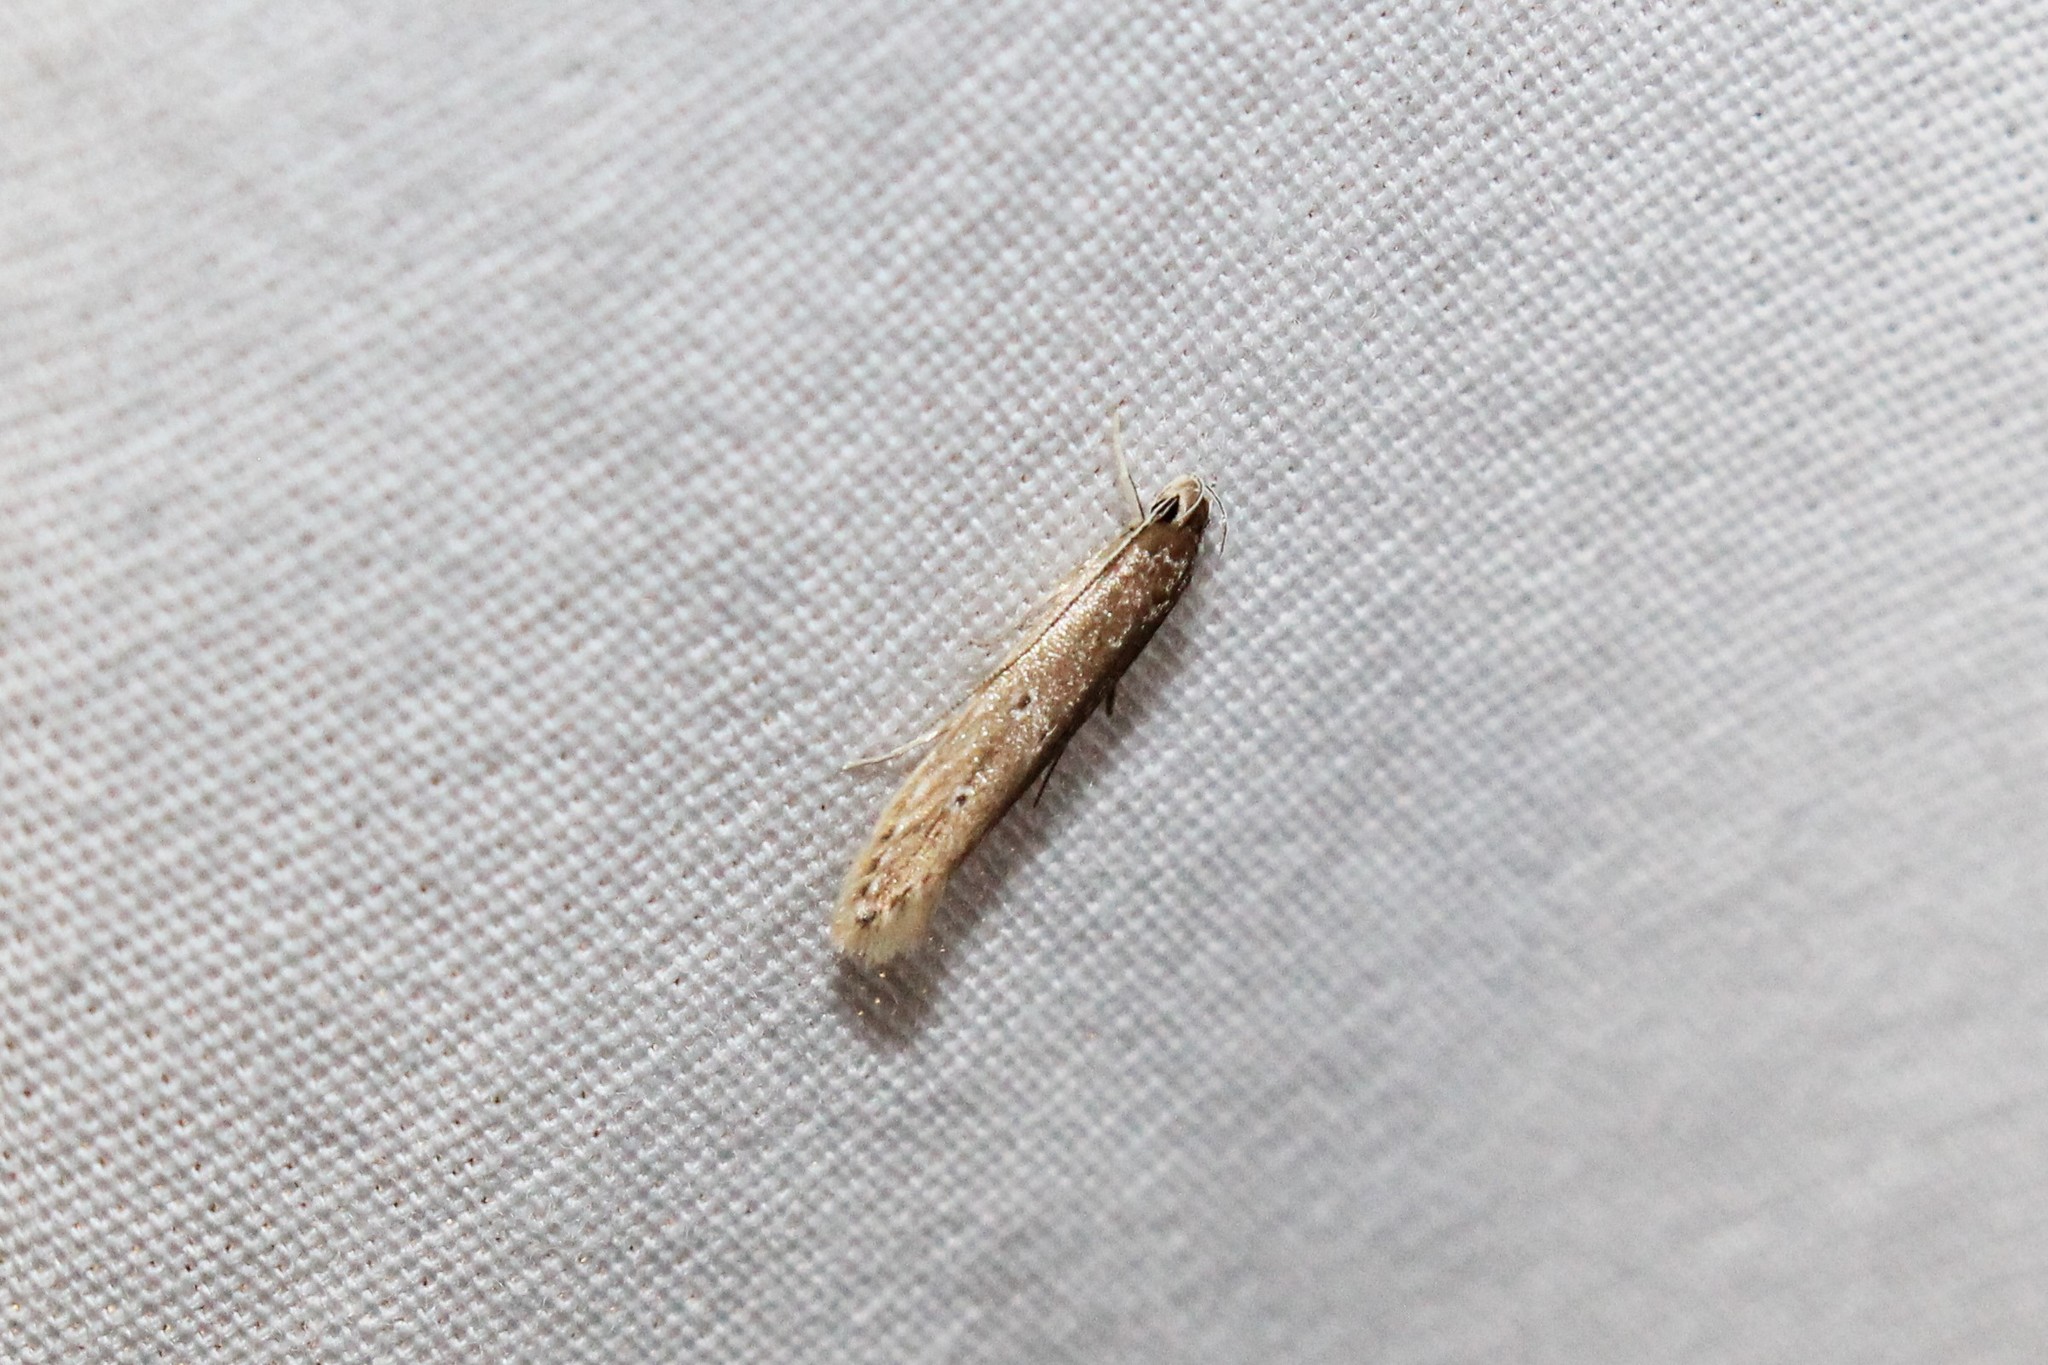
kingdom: Animalia
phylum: Arthropoda
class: Insecta
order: Lepidoptera
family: Cosmopterigidae
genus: Limnaecia
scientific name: Limnaecia phragmitella
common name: Bulrush cosmet
